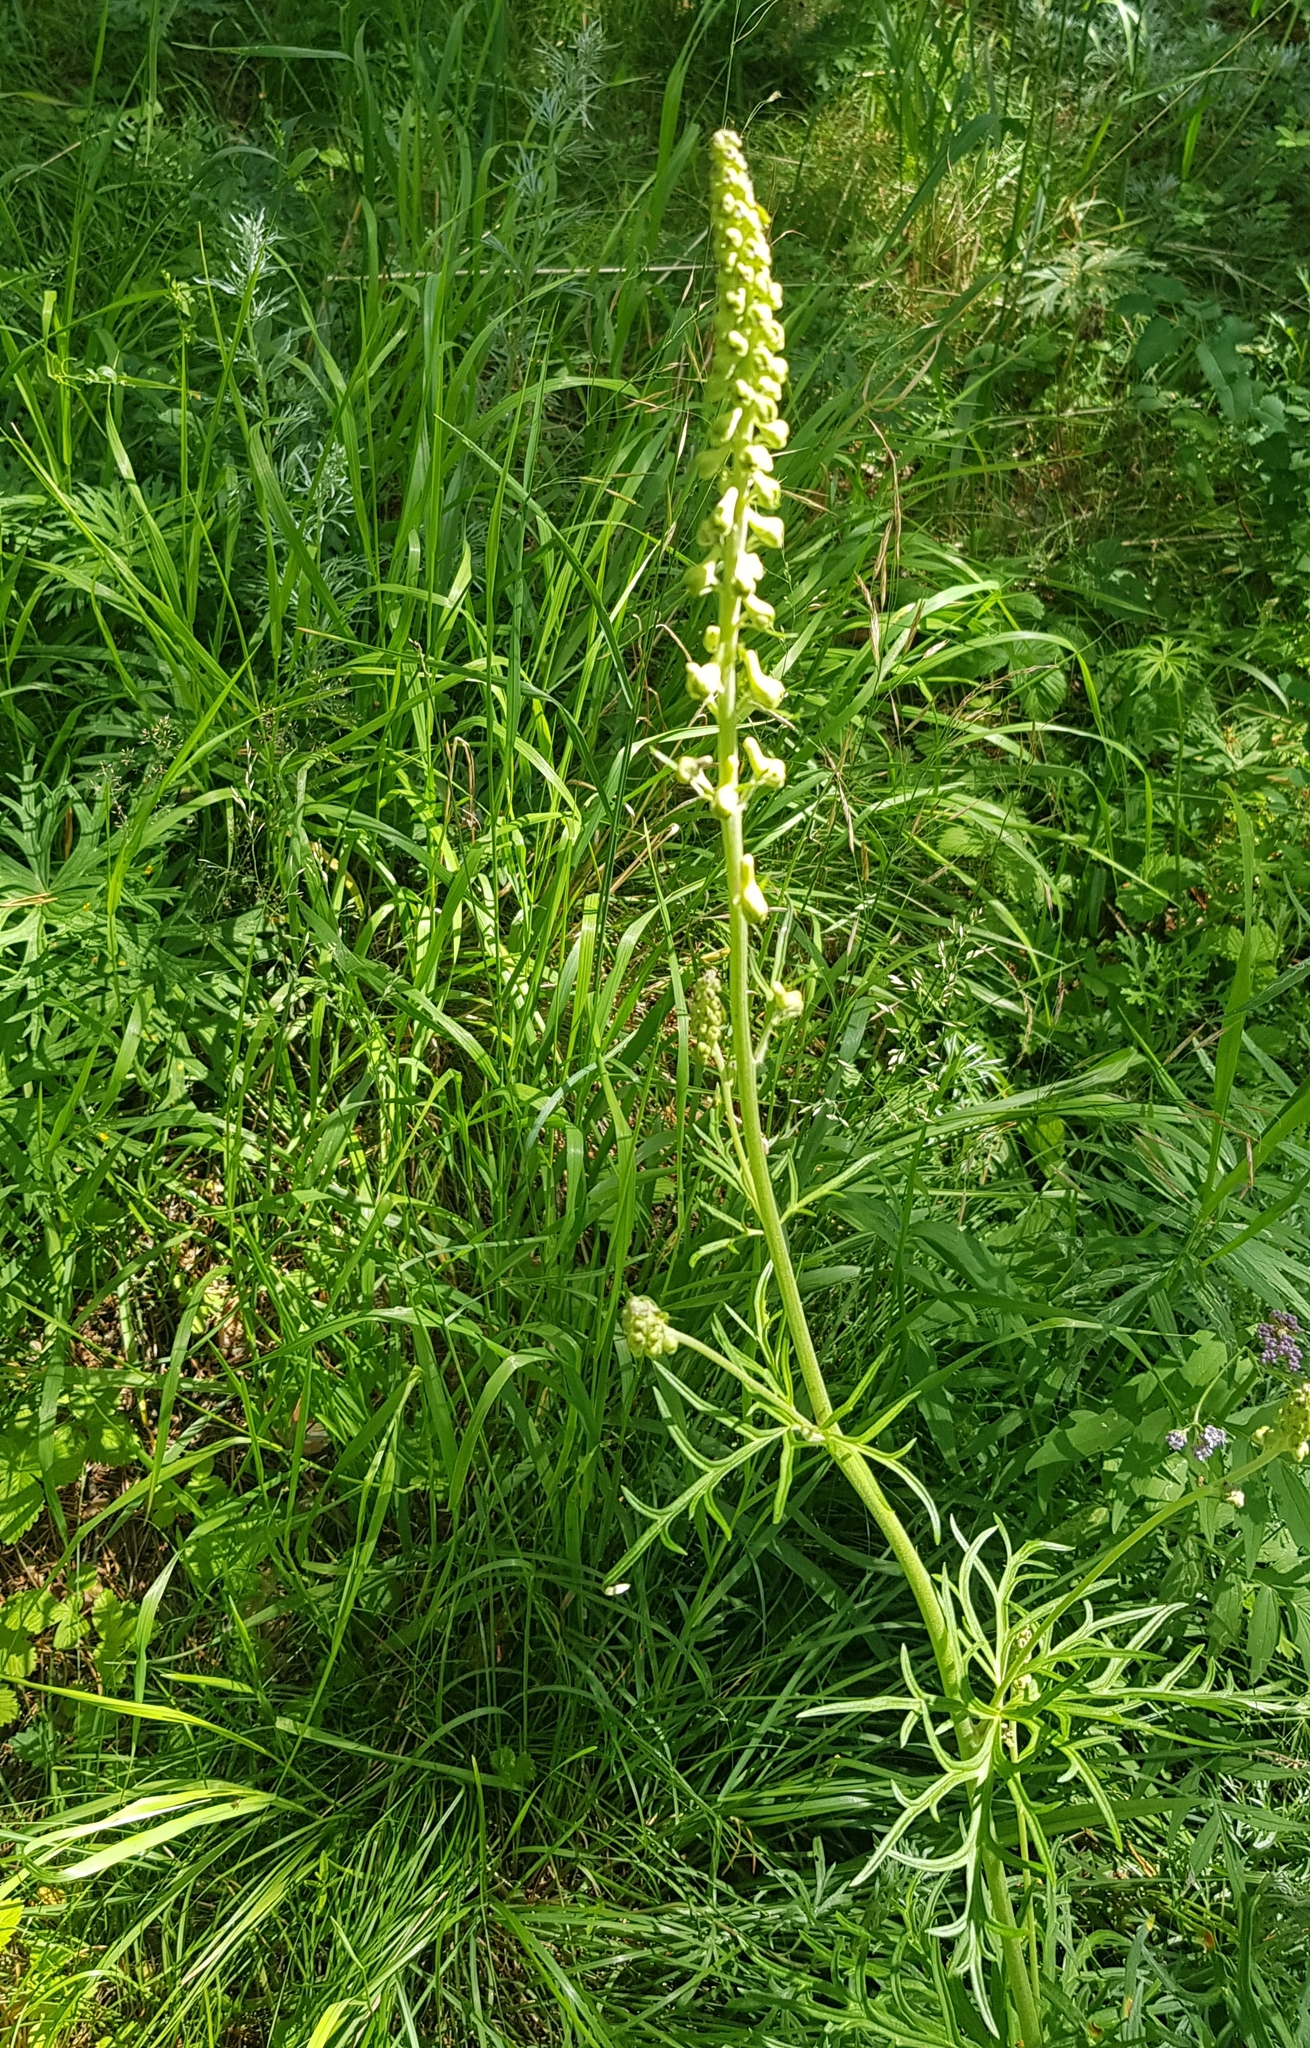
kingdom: Plantae
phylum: Tracheophyta
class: Magnoliopsida
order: Ranunculales
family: Ranunculaceae
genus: Aconitum
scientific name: Aconitum barbatum
